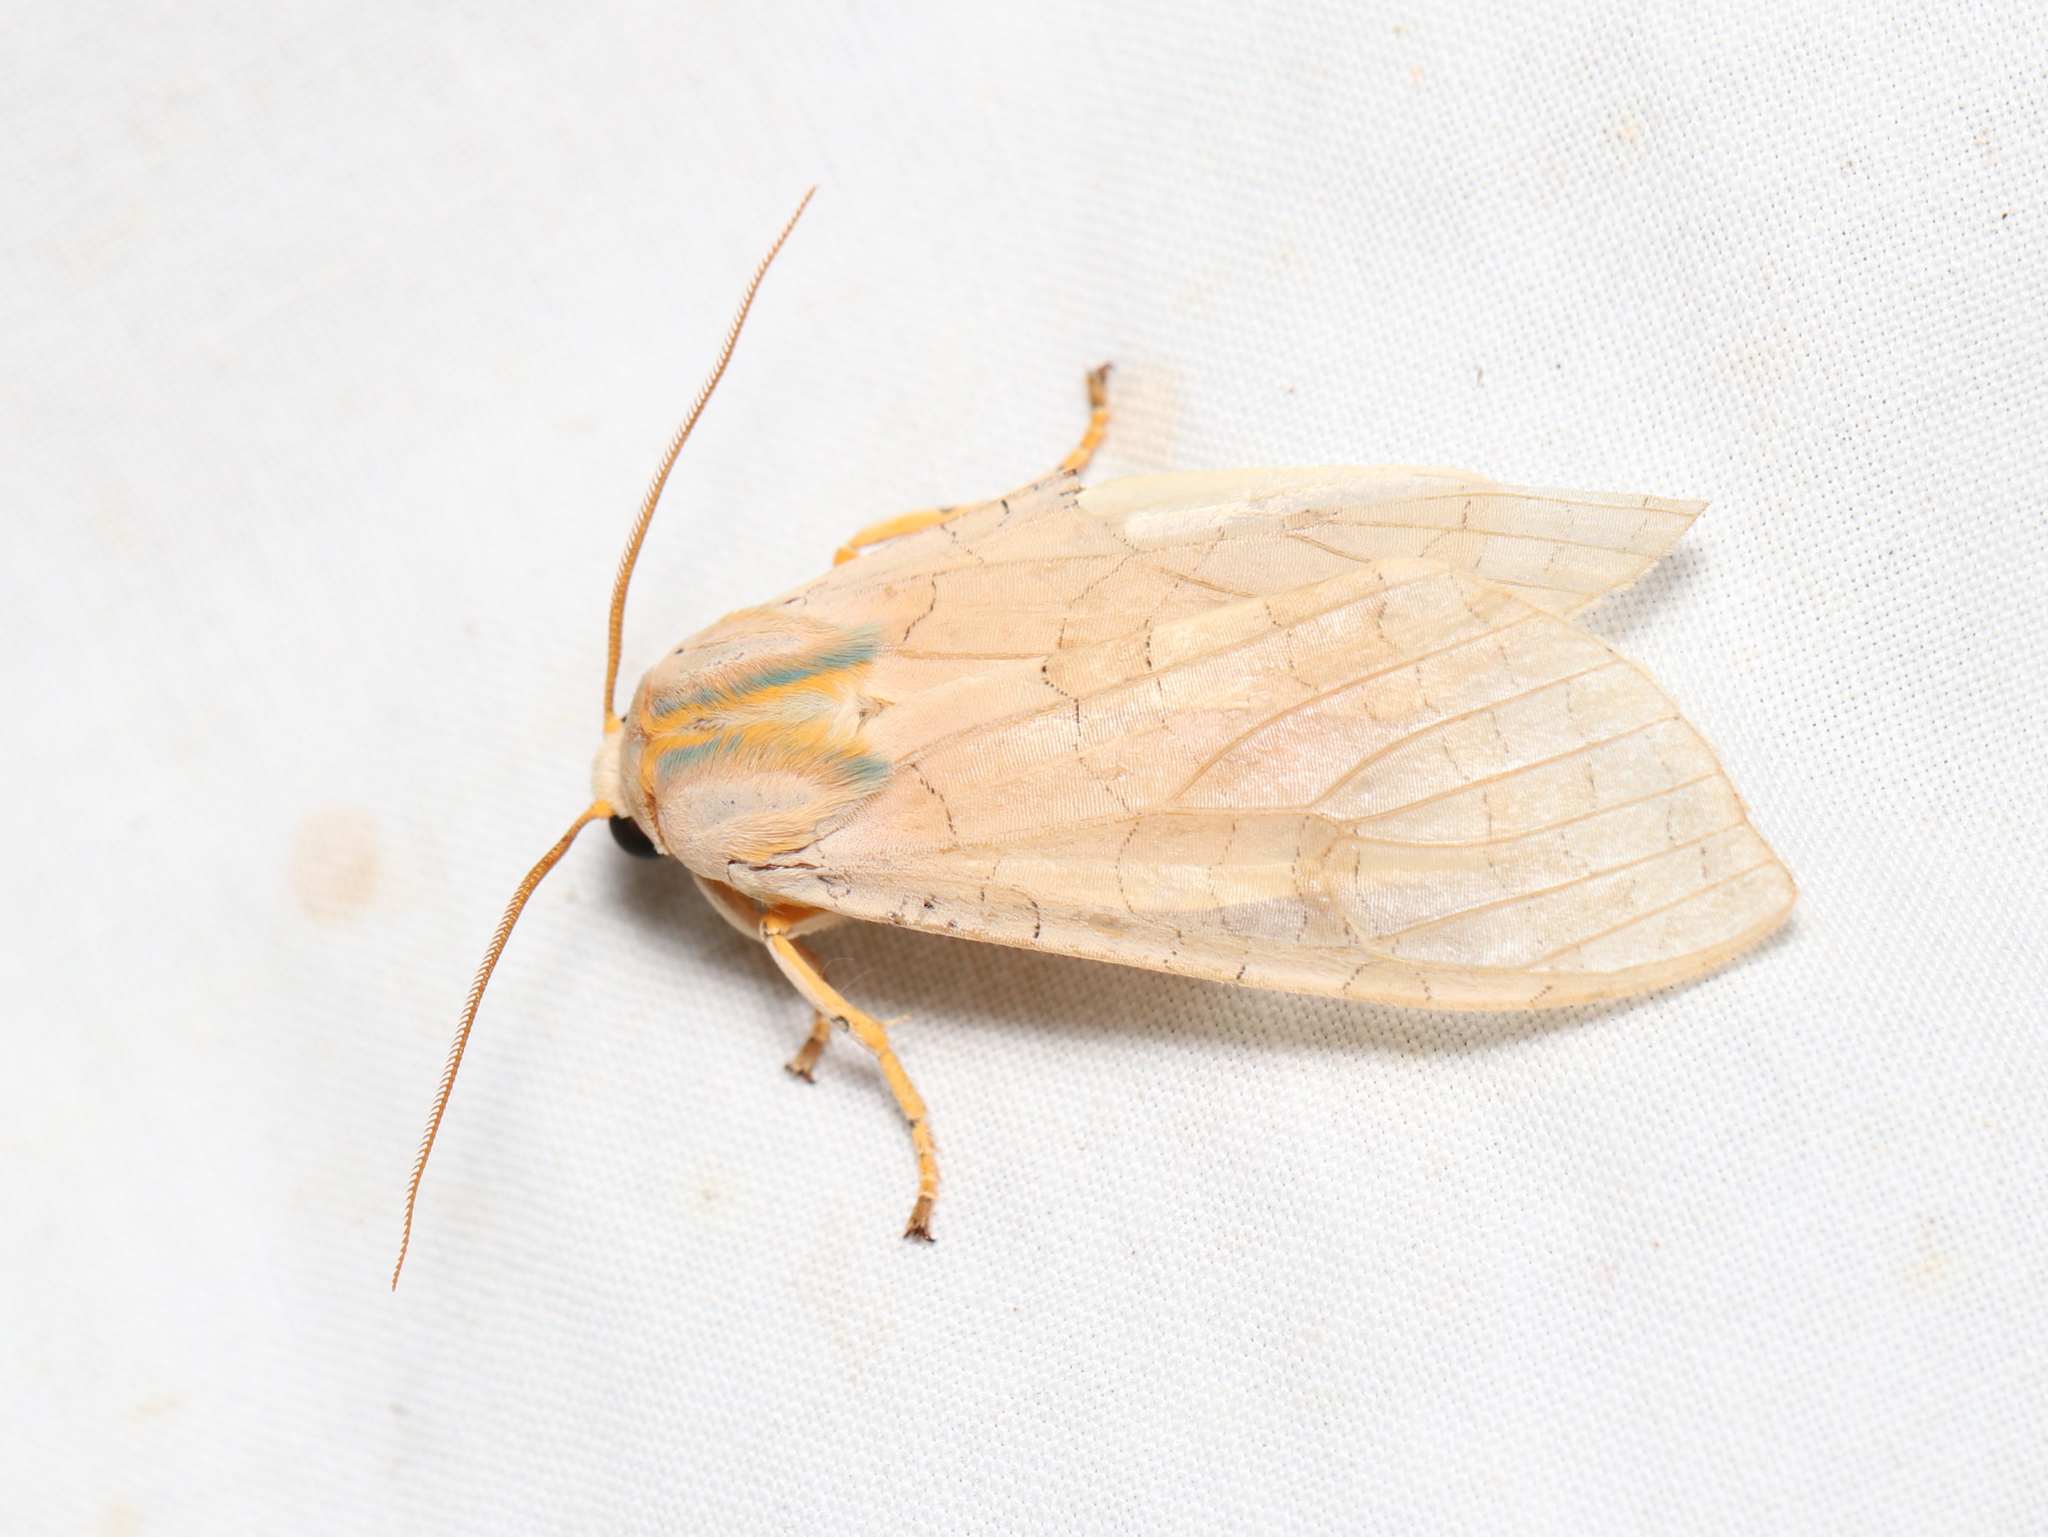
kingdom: Animalia
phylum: Arthropoda
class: Insecta
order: Lepidoptera
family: Erebidae
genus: Halysidota
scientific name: Halysidota
